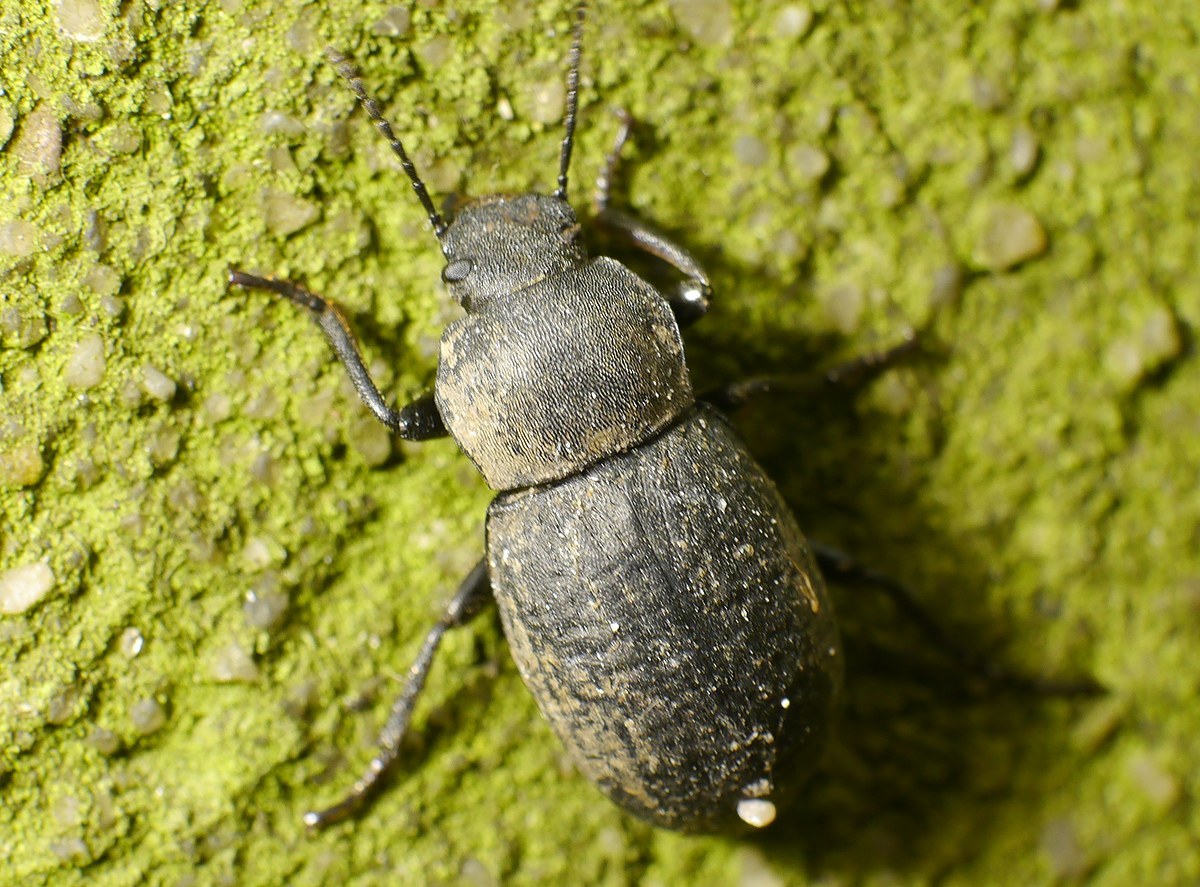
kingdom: Animalia
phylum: Arthropoda
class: Insecta
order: Coleoptera
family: Tenebrionidae
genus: Euboeus
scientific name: Euboeus
